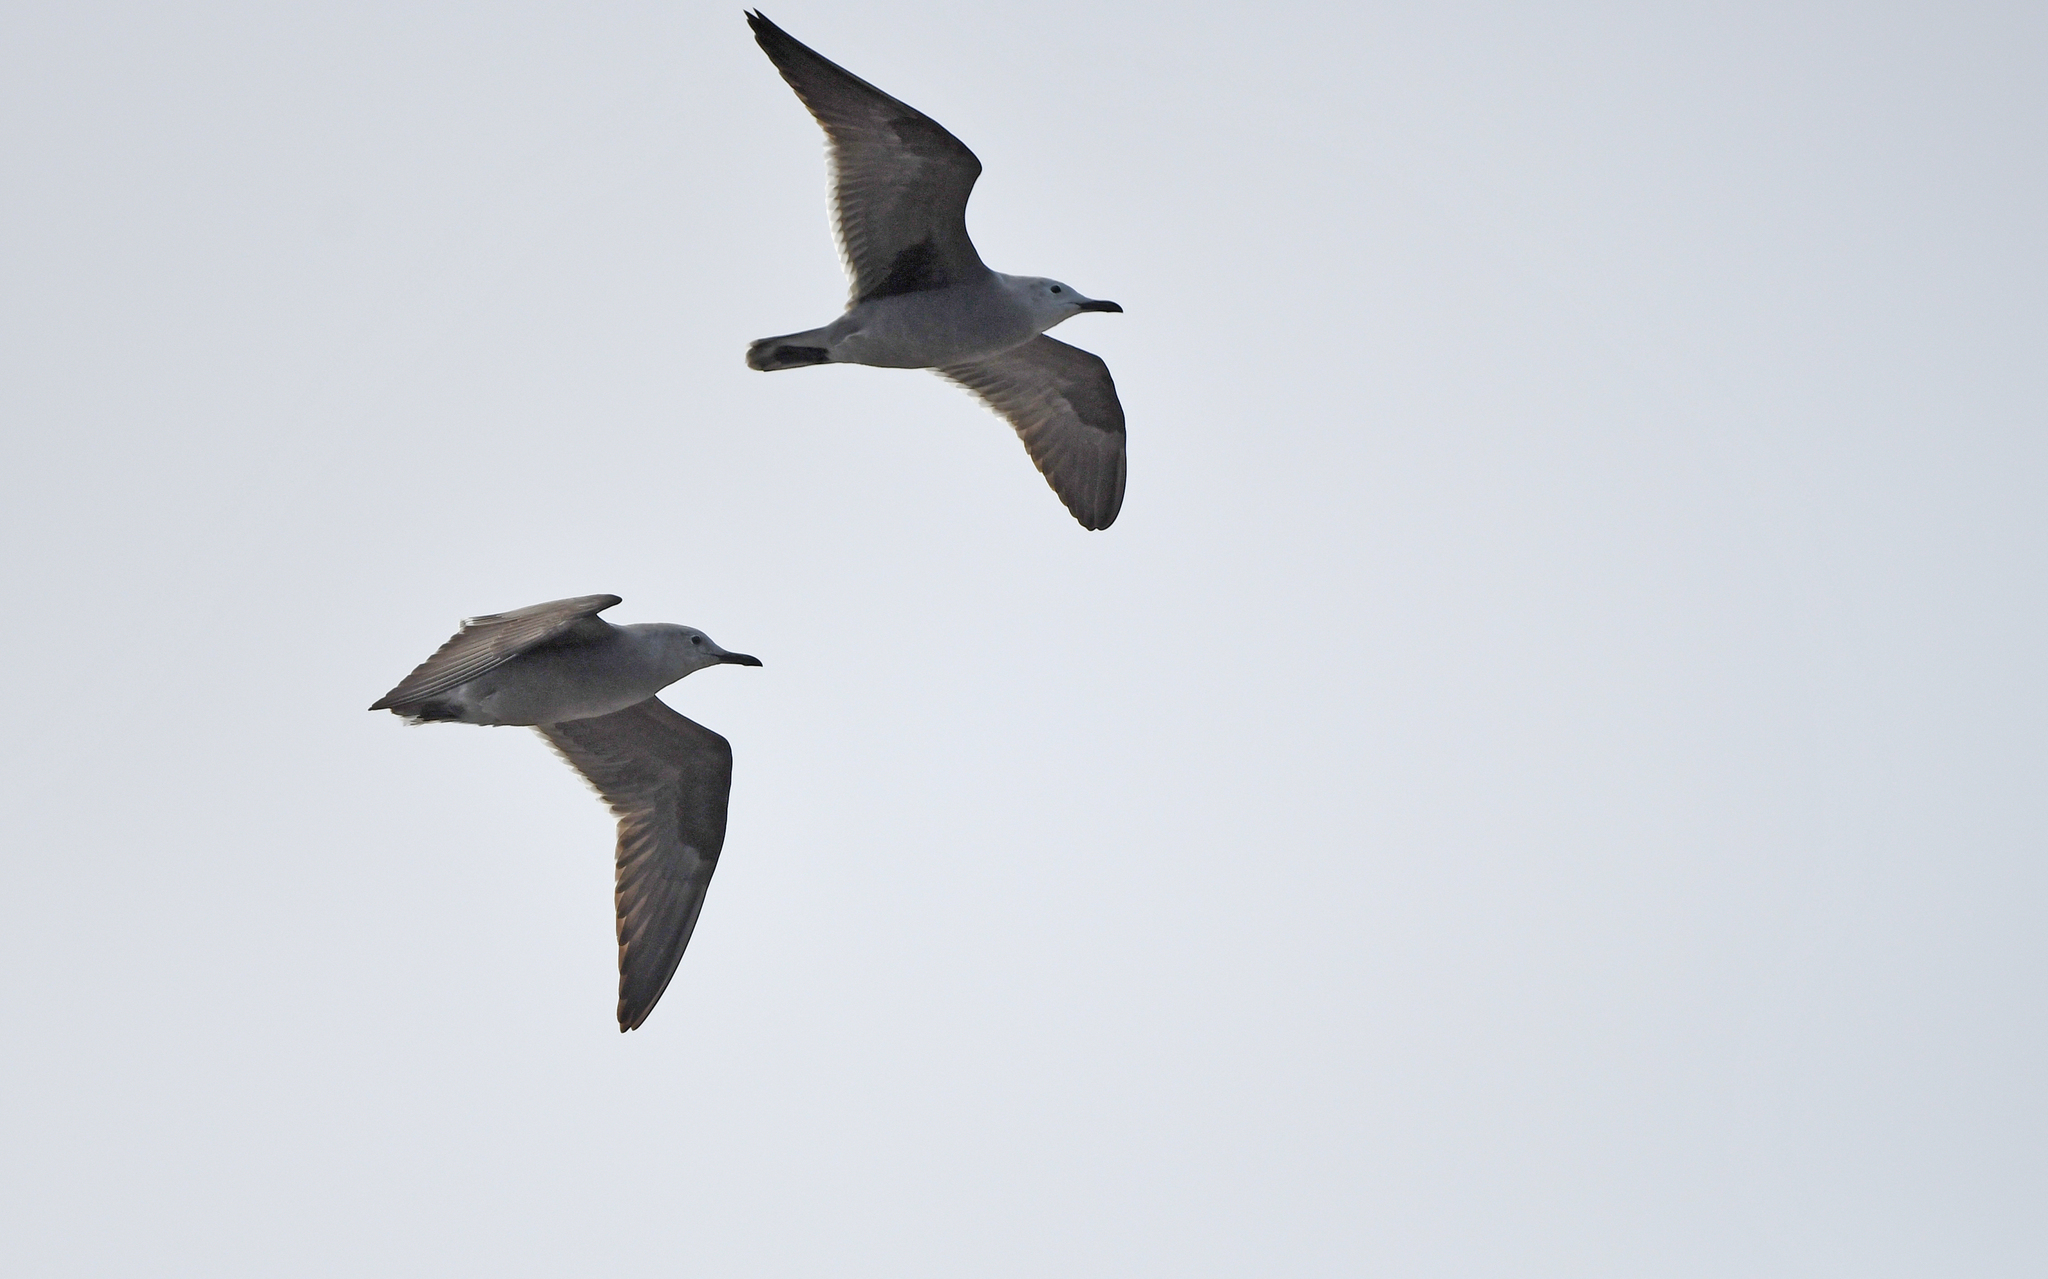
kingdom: Animalia
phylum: Chordata
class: Aves
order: Charadriiformes
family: Laridae
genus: Leucophaeus
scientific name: Leucophaeus modestus
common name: Gray gull
